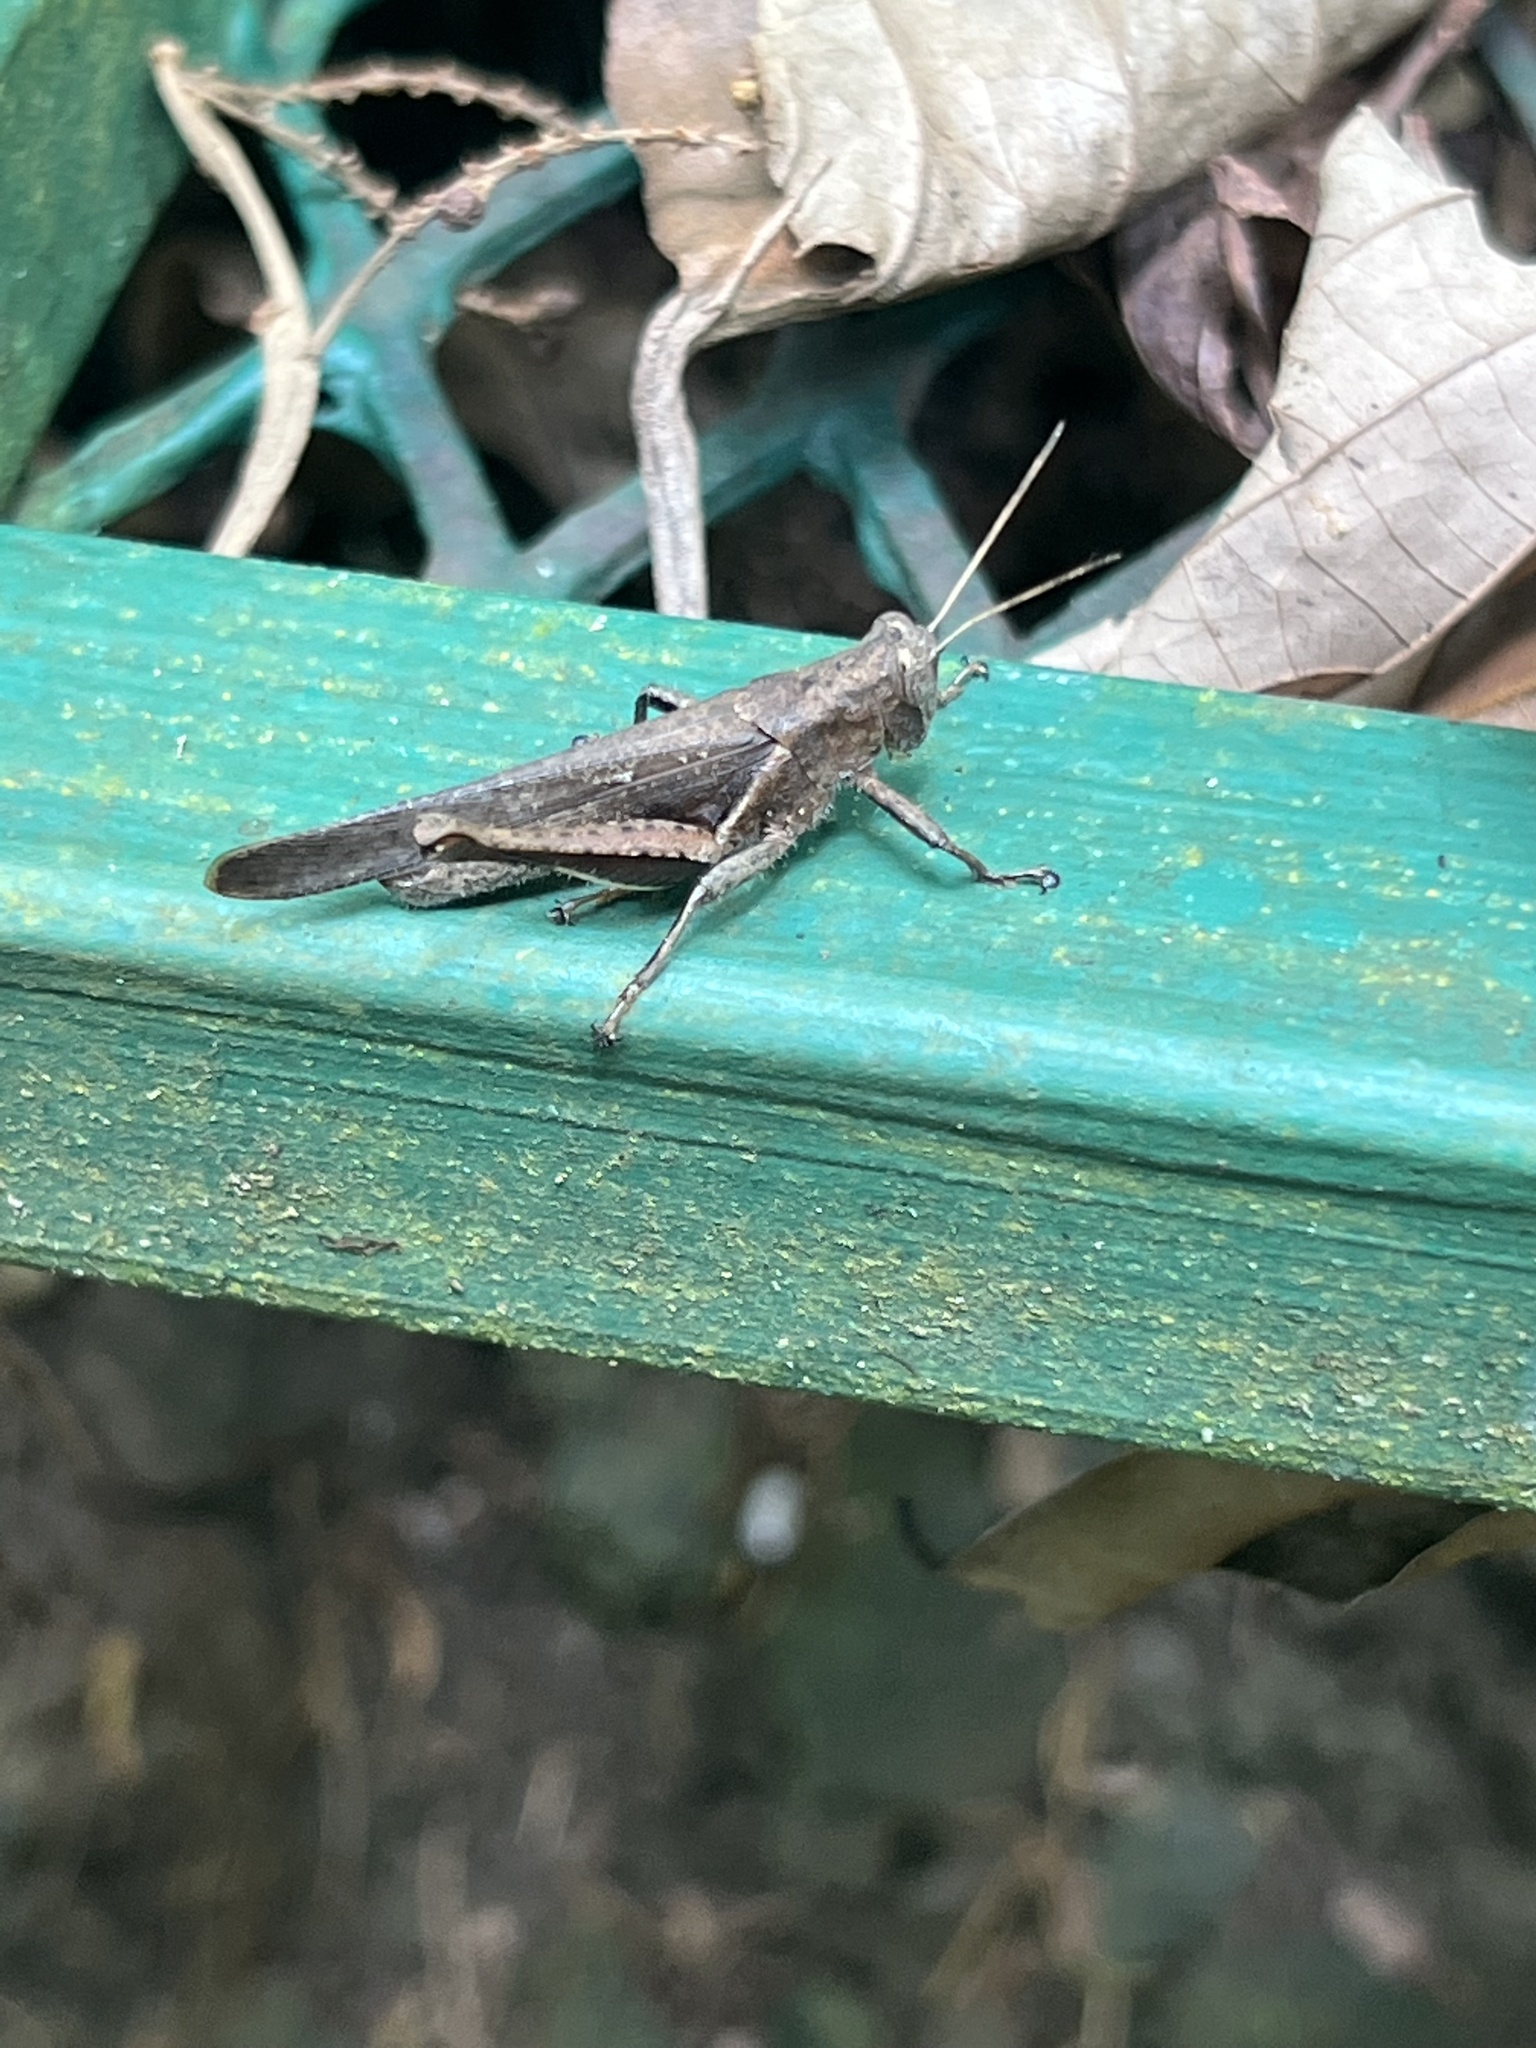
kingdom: Animalia
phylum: Arthropoda
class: Insecta
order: Orthoptera
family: Acrididae
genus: Abracris
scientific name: Abracris flavolineata
